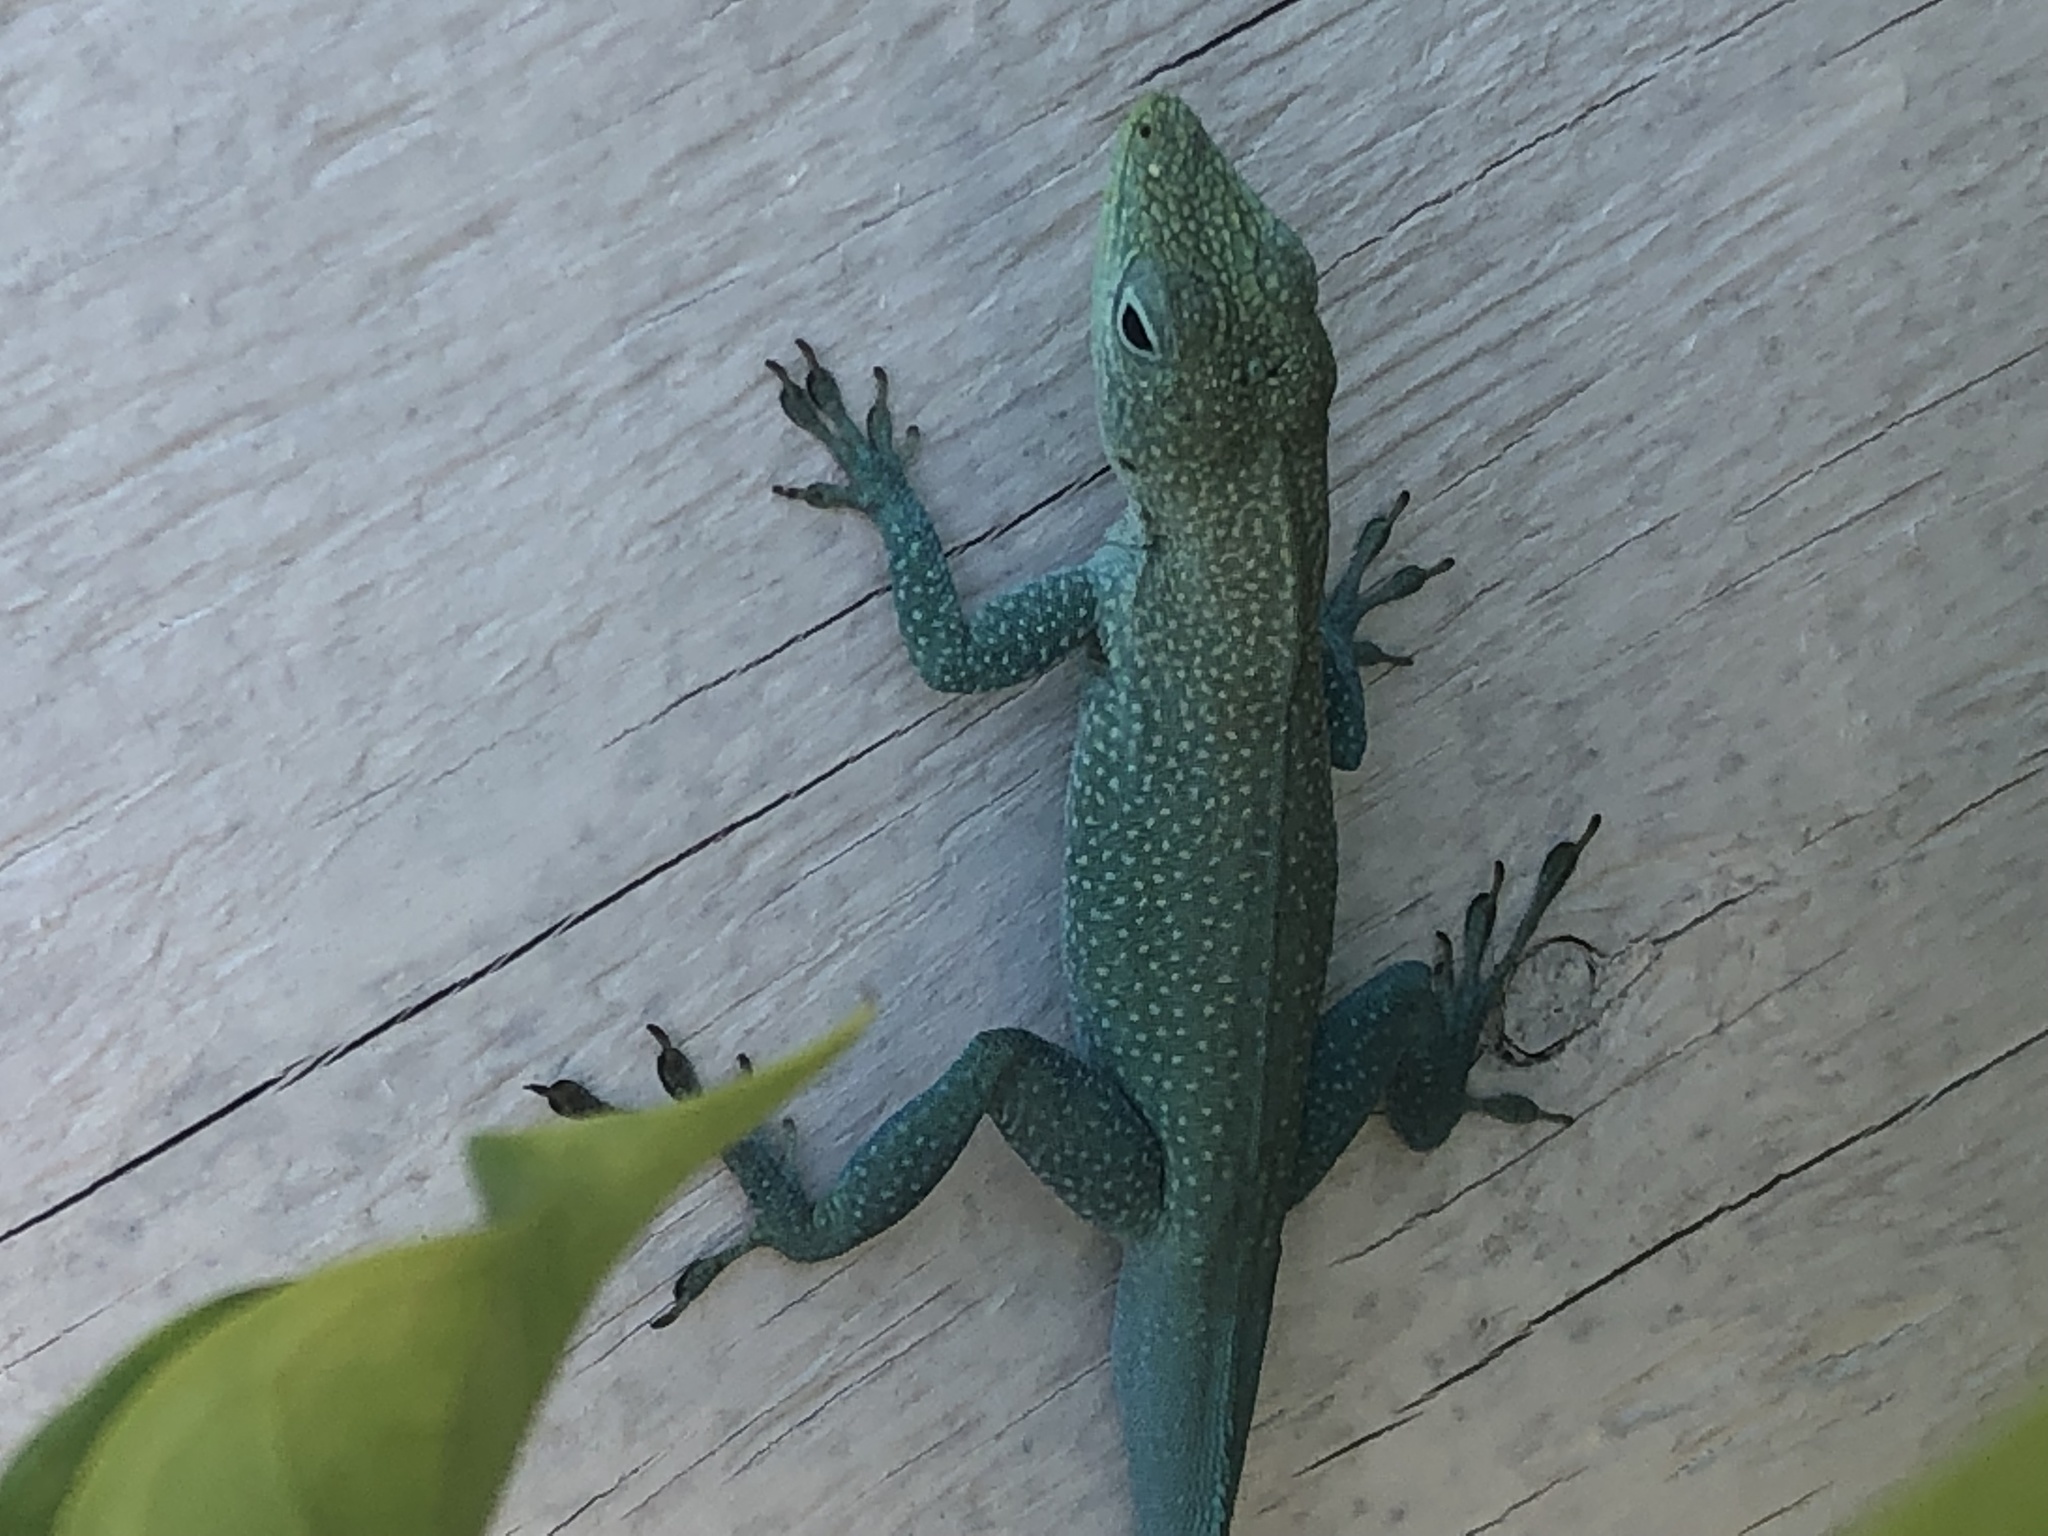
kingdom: Animalia
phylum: Chordata
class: Squamata
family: Dactyloidae
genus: Anolis
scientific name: Anolis conspersus
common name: Grand cayman anole
